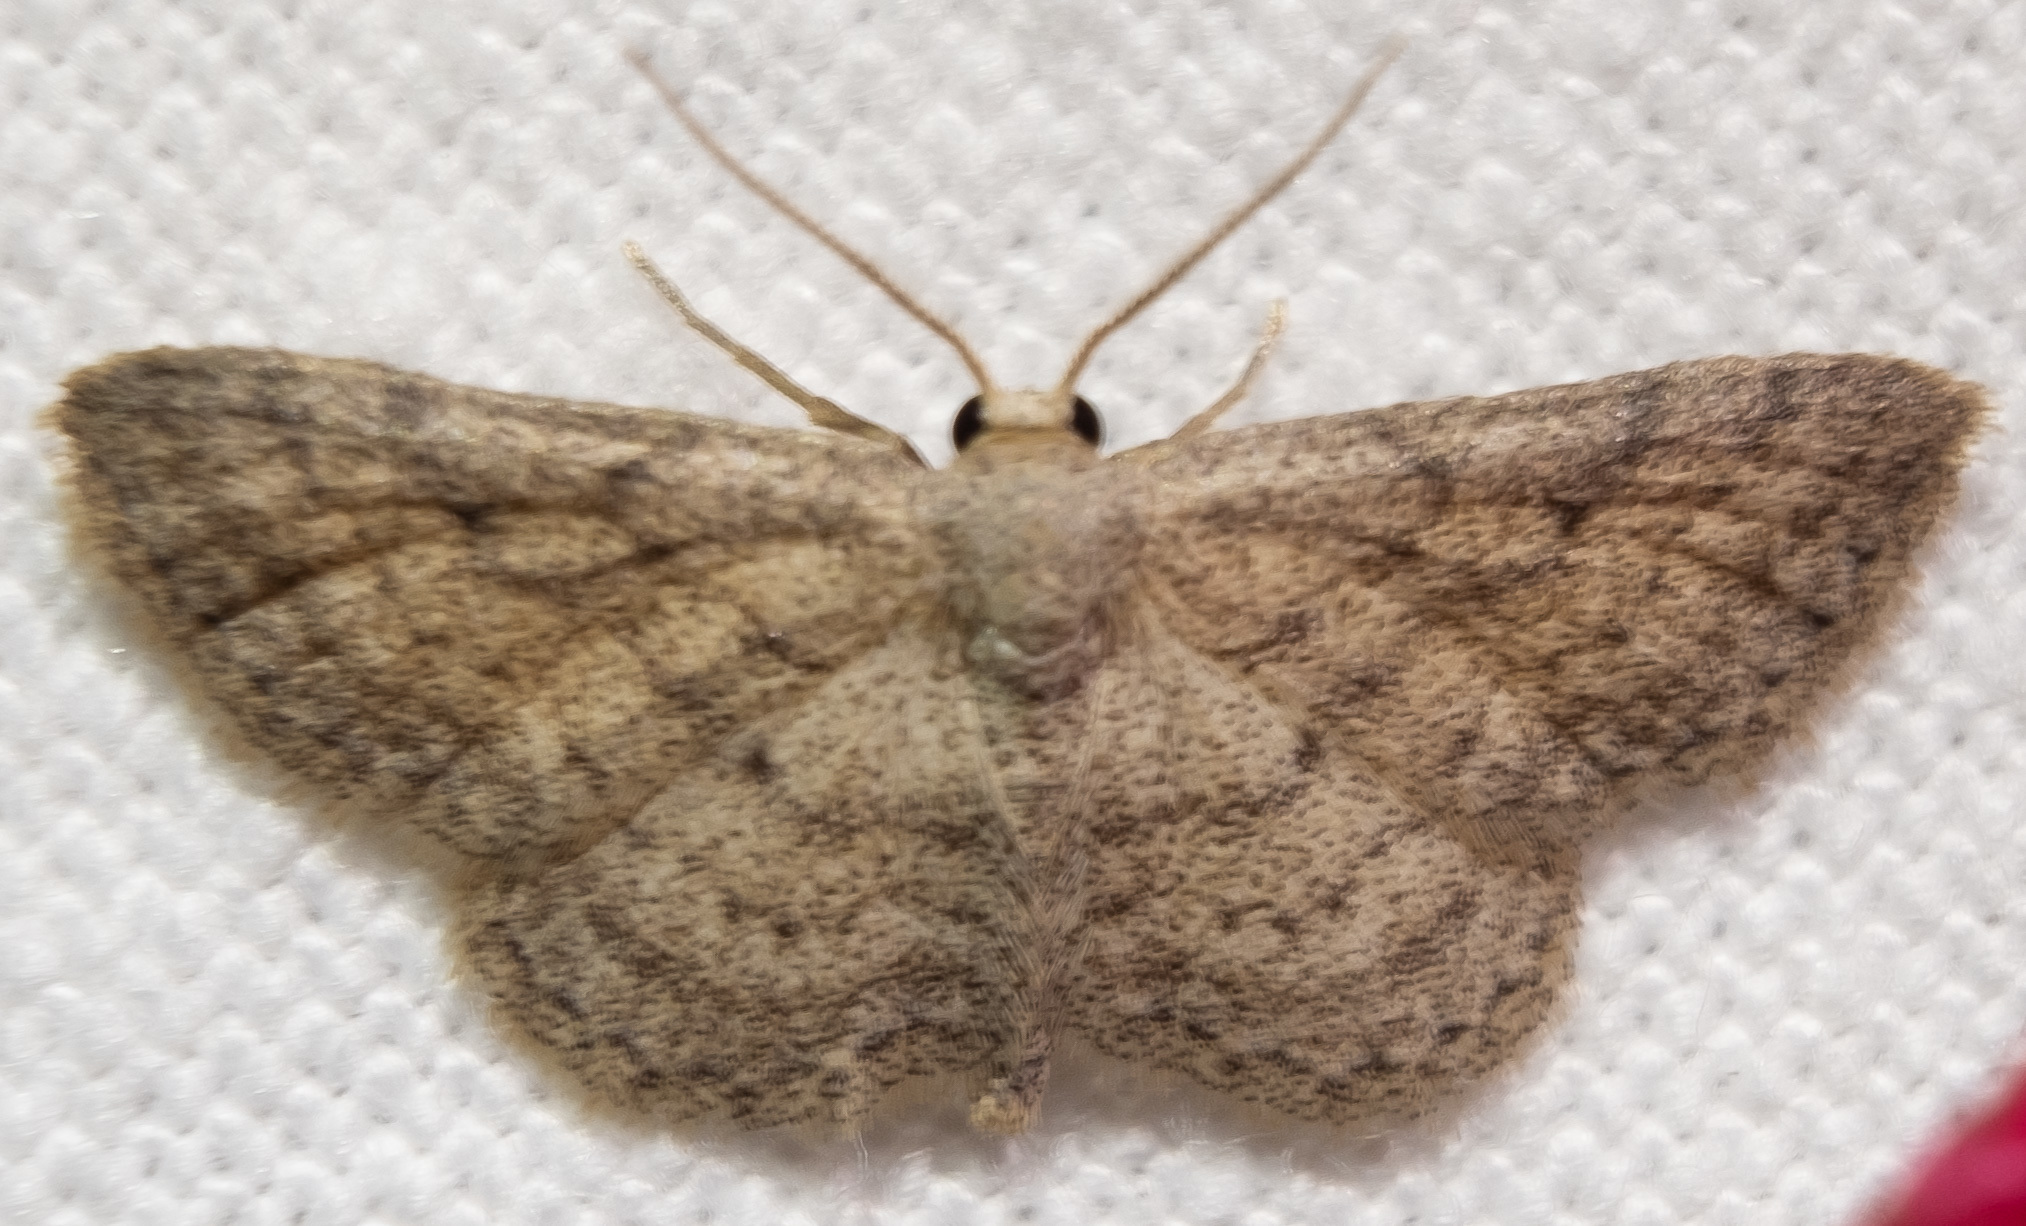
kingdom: Animalia
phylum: Arthropoda
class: Insecta
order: Lepidoptera
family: Geometridae
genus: Lobocleta
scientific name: Lobocleta ossularia
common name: Drab brown wave
